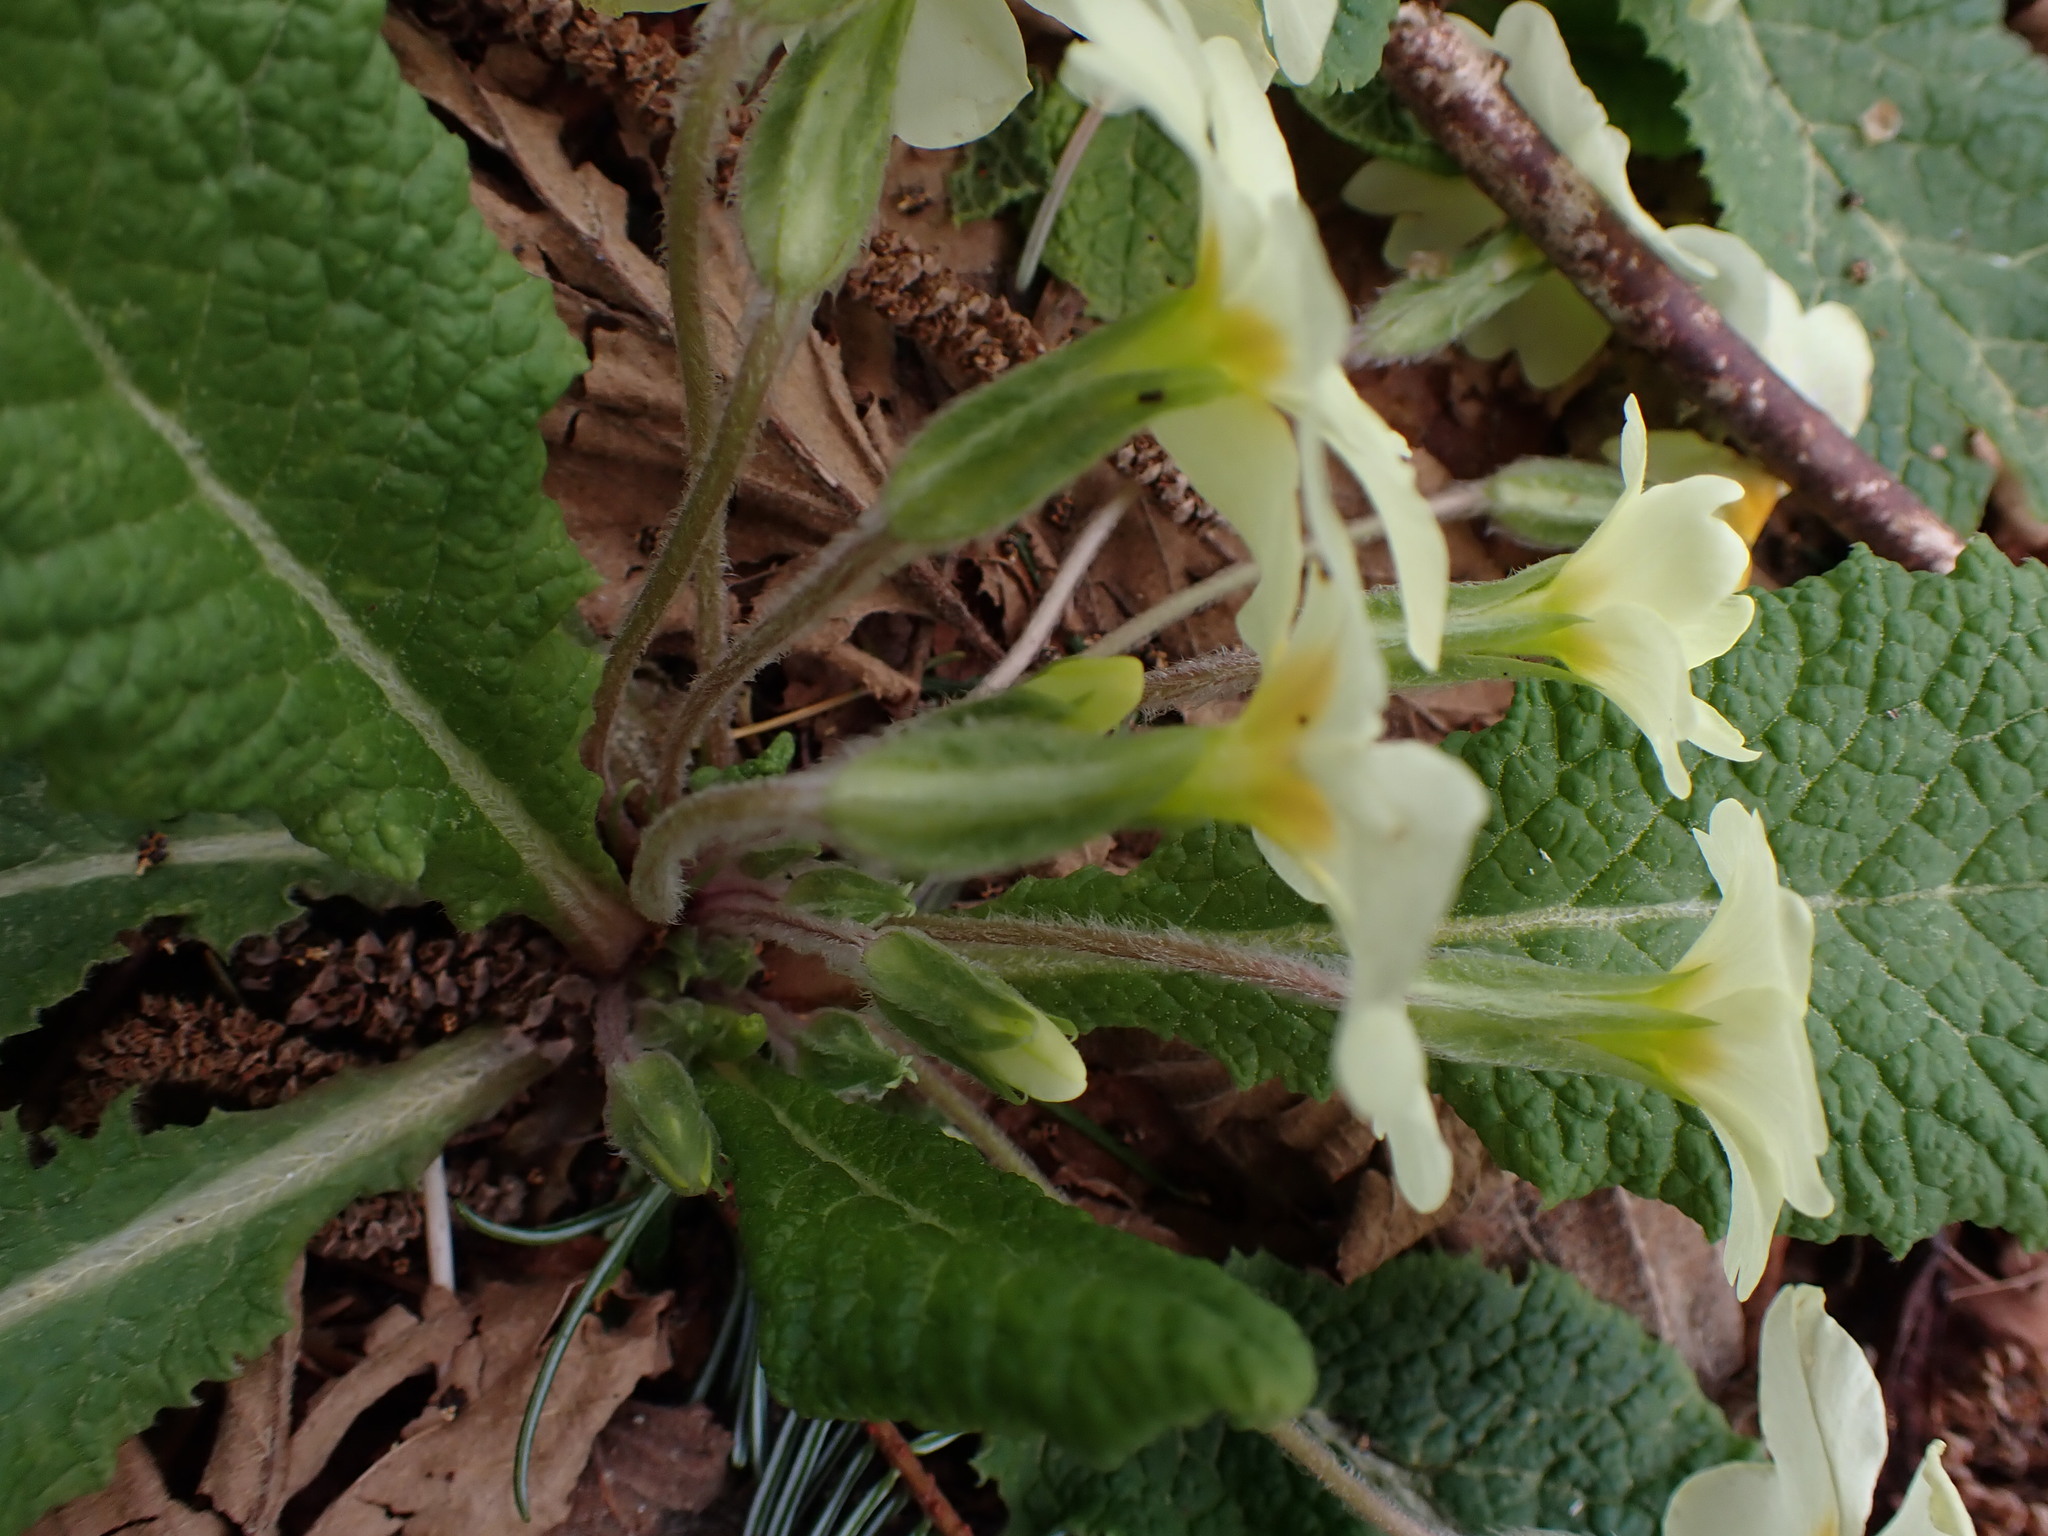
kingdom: Plantae
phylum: Tracheophyta
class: Magnoliopsida
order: Ericales
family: Primulaceae
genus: Primula
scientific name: Primula vulgaris
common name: Primrose
